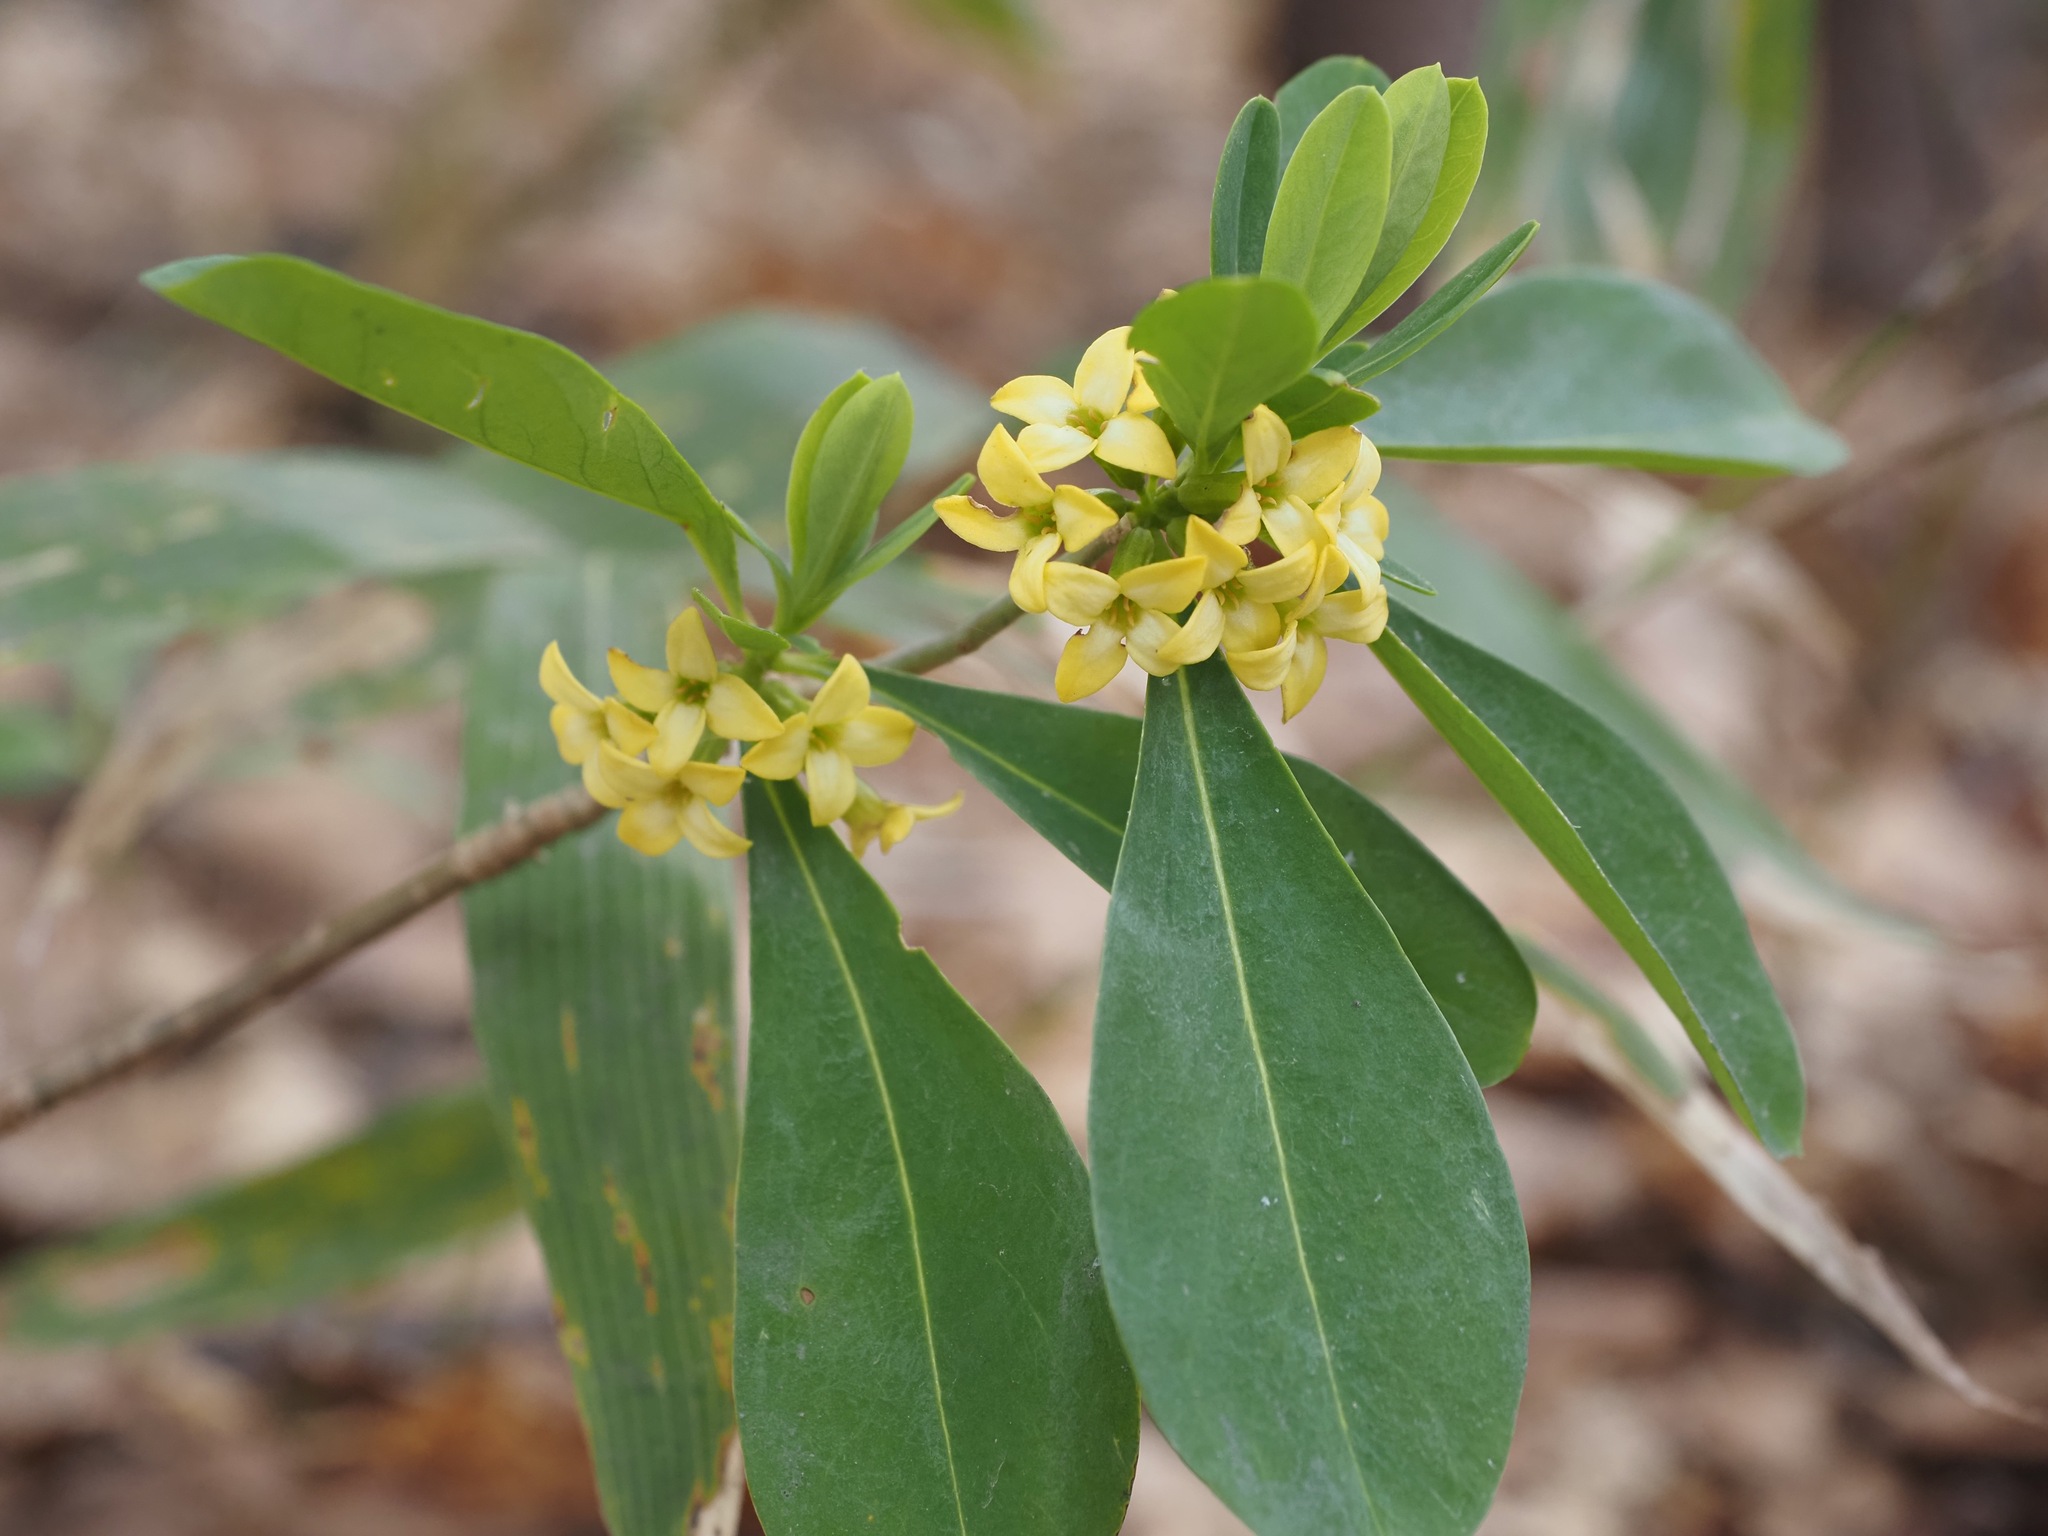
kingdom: Plantae
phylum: Tracheophyta
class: Magnoliopsida
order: Malvales
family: Thymelaeaceae
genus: Daphne
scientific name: Daphne jezoensis
